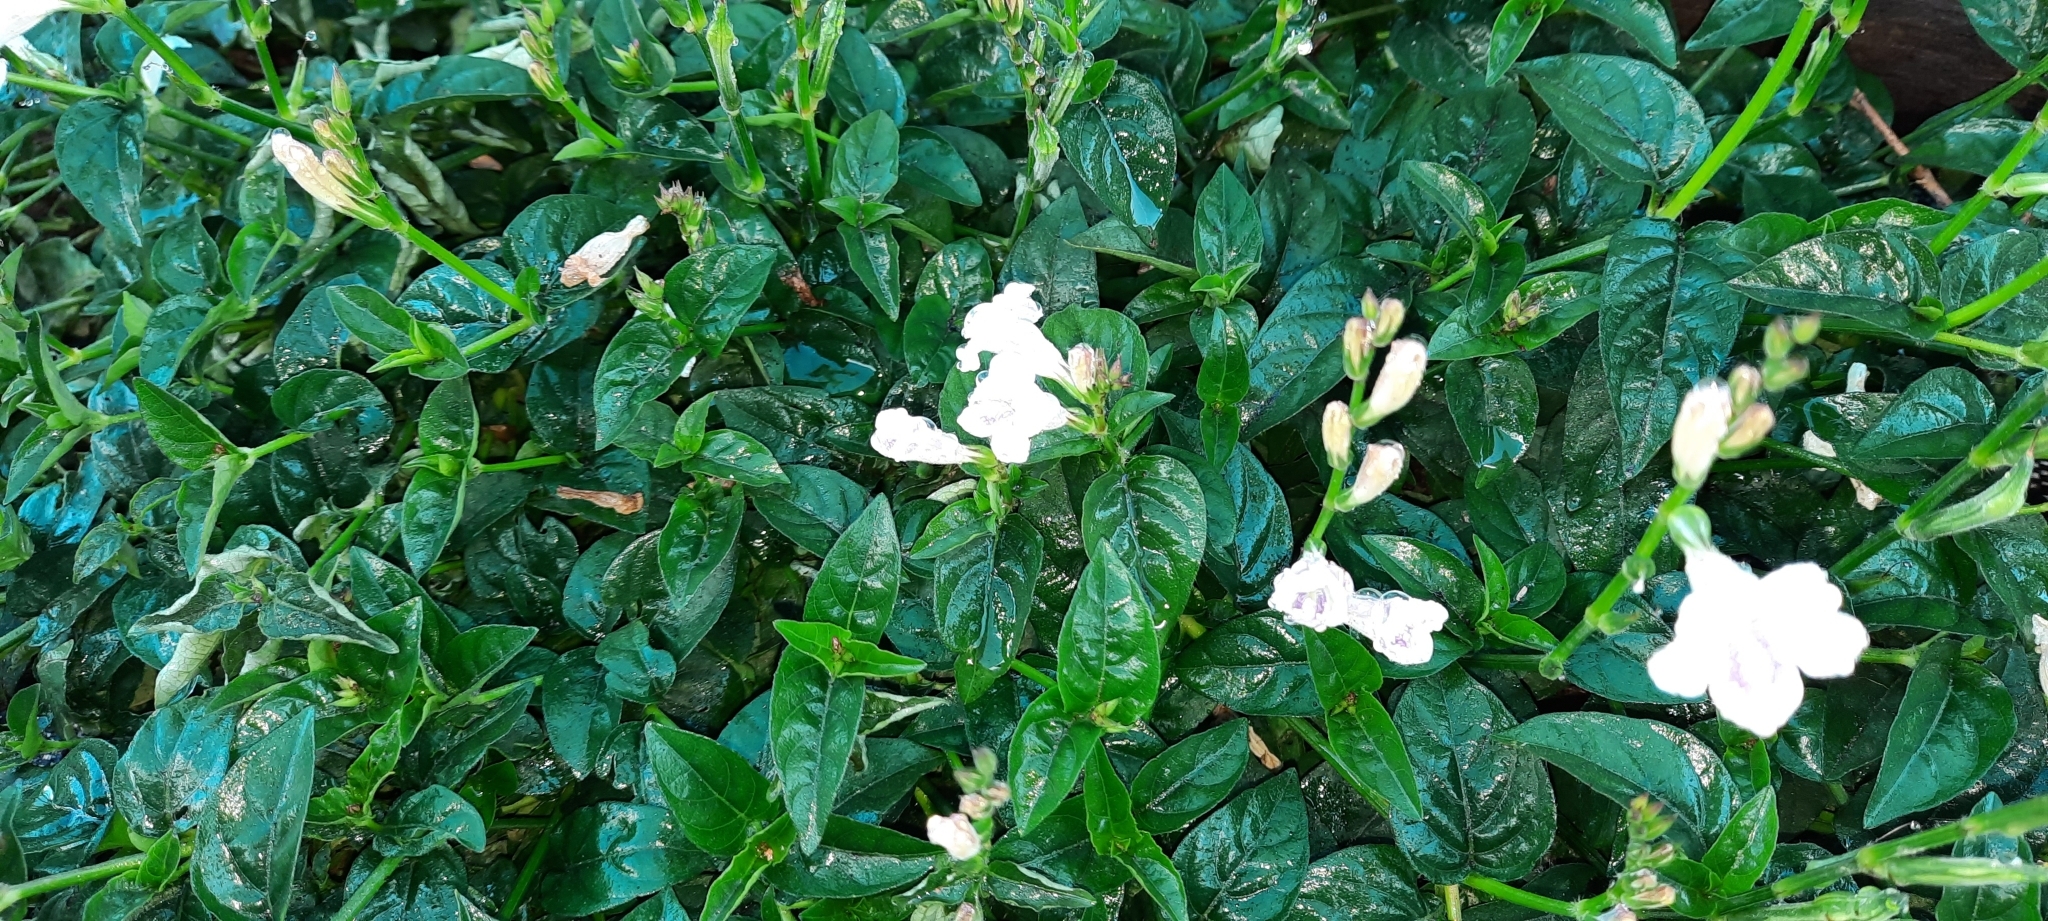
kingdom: Plantae
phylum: Tracheophyta
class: Magnoliopsida
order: Lamiales
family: Acanthaceae
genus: Asystasia
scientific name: Asystasia intrusa
